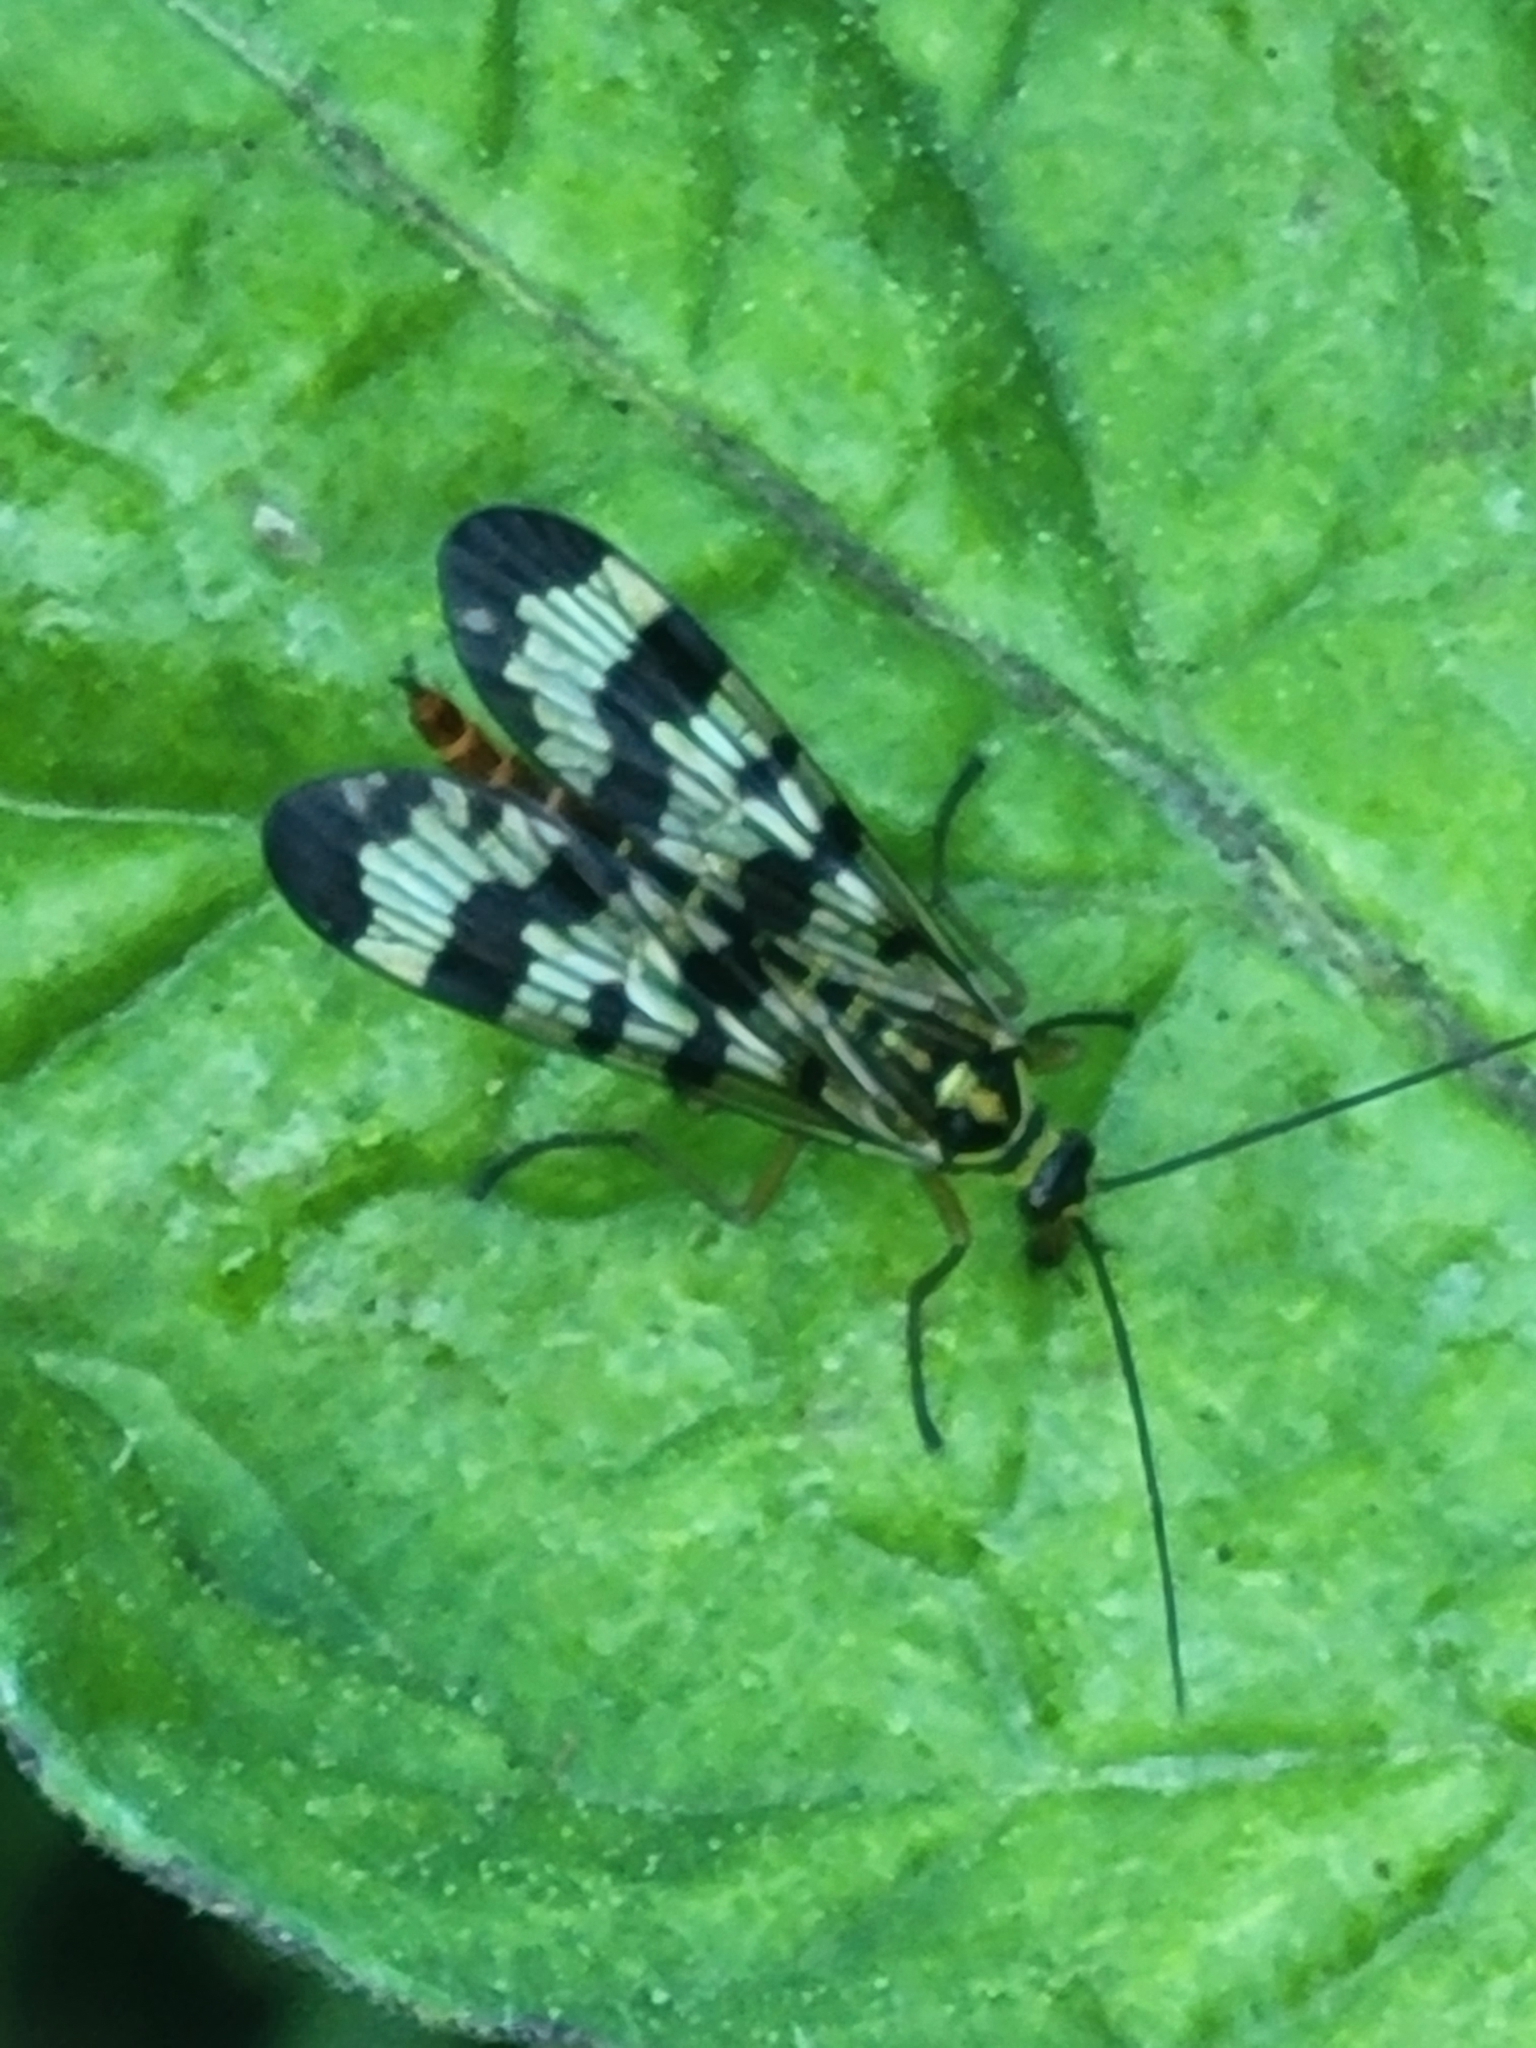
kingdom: Animalia
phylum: Arthropoda
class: Insecta
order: Mecoptera
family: Panorpidae
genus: Panorpa
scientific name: Panorpa communis
